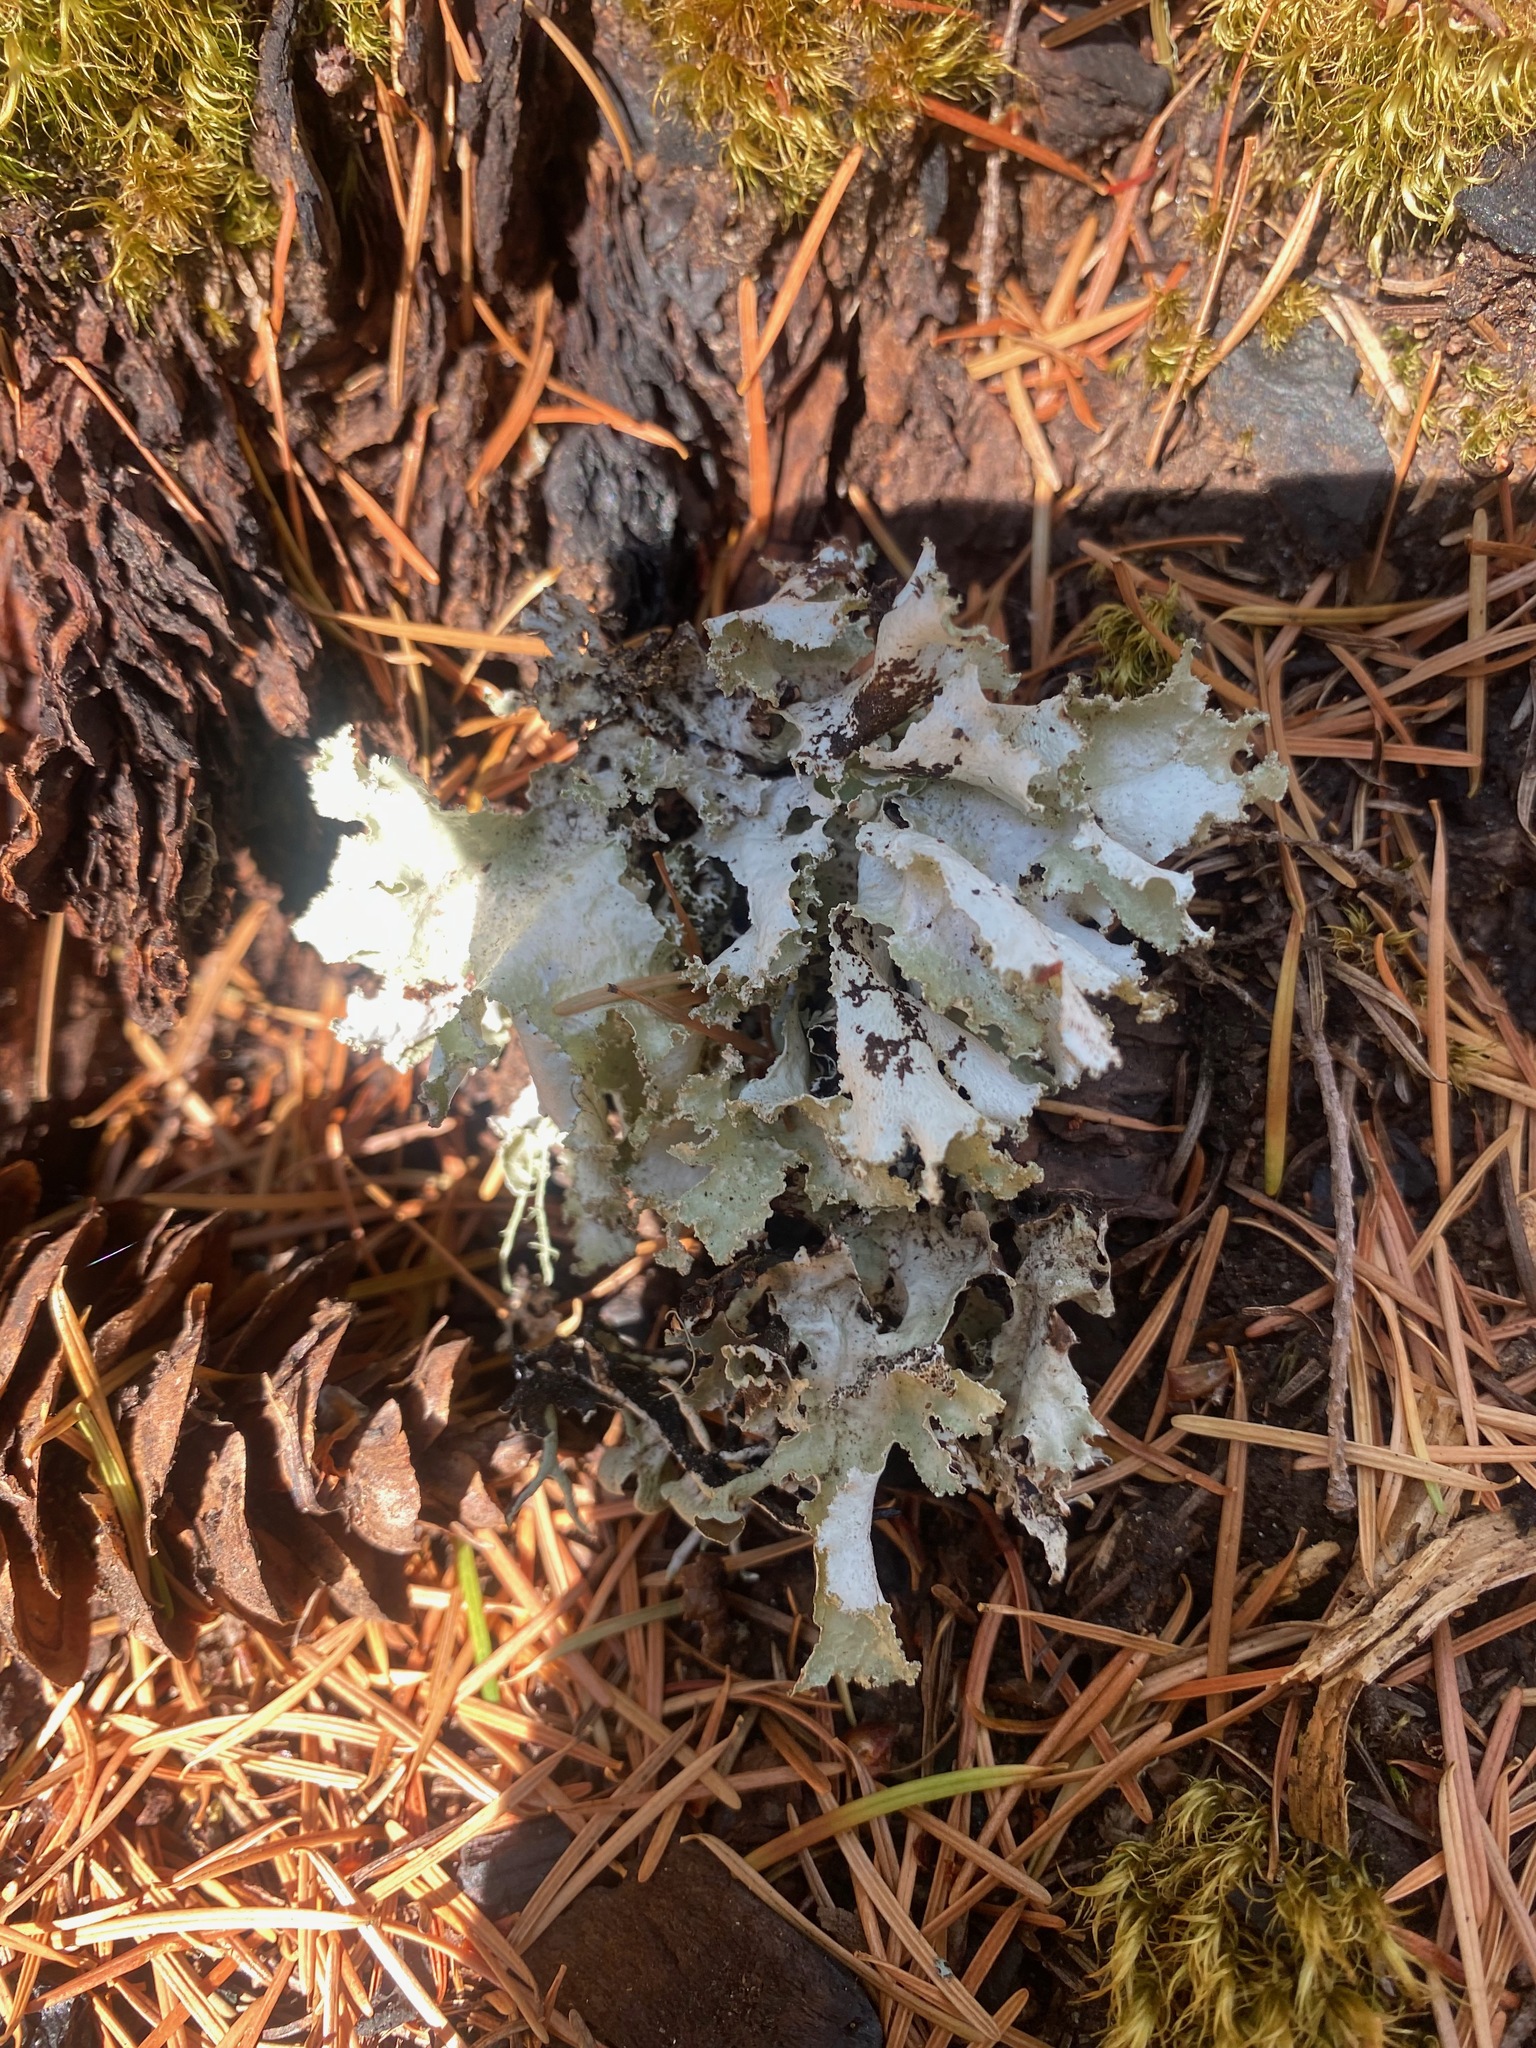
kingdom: Fungi
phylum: Ascomycota
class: Lecanoromycetes
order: Lecanorales
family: Parmeliaceae
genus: Platismatia
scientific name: Platismatia glauca
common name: Varied rag lichen
